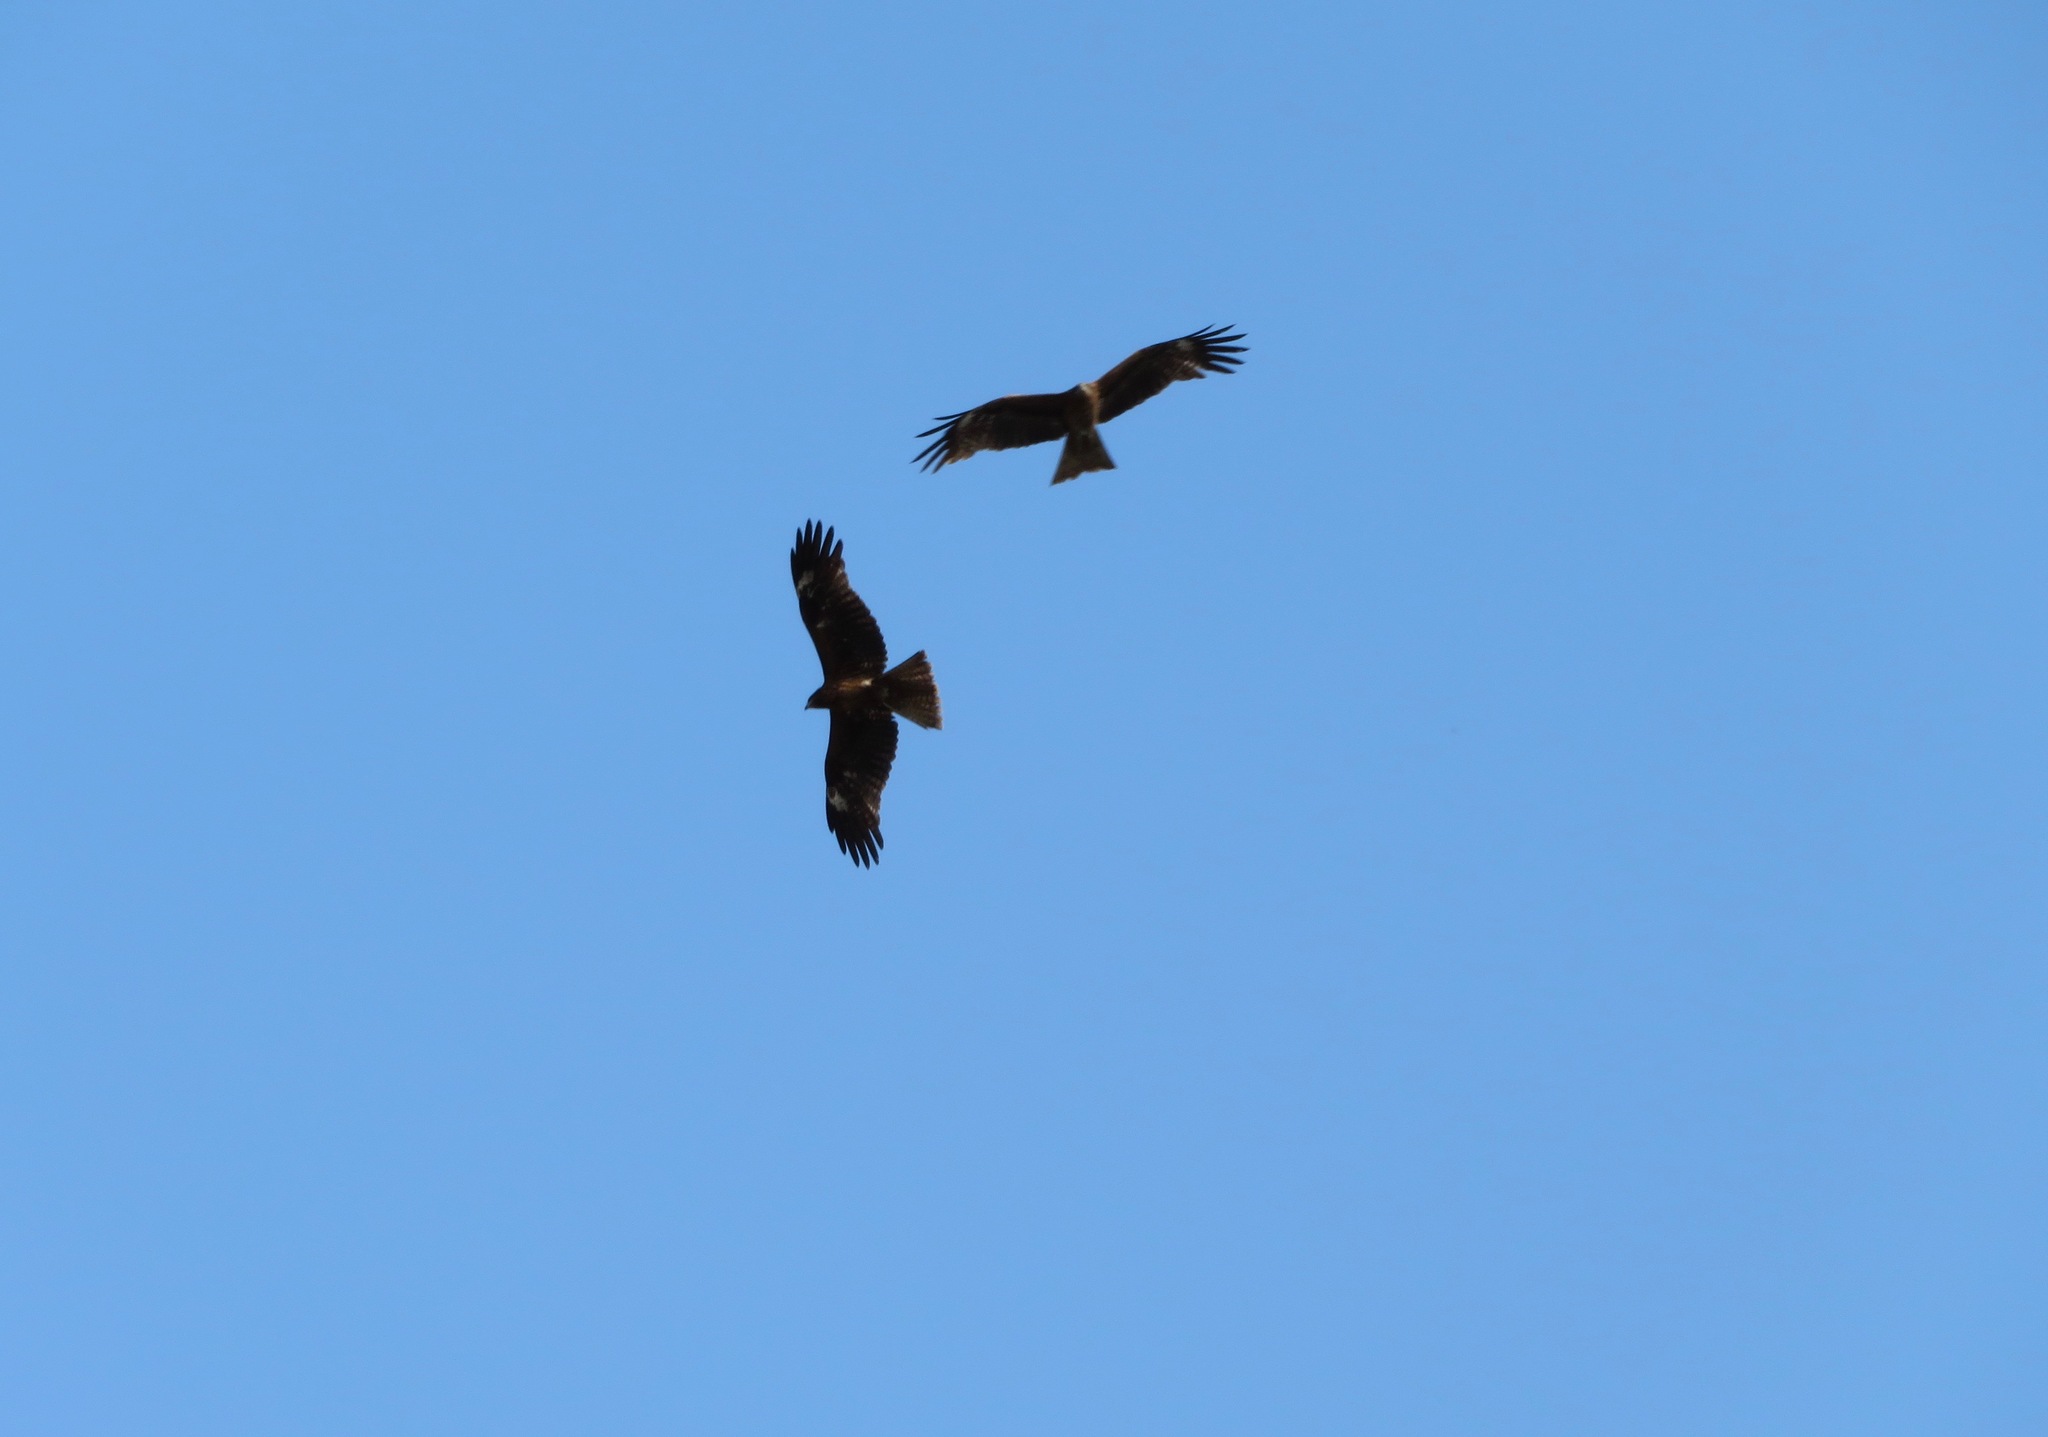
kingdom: Animalia
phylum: Chordata
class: Aves
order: Accipitriformes
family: Accipitridae
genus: Milvus
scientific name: Milvus migrans
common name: Black kite
